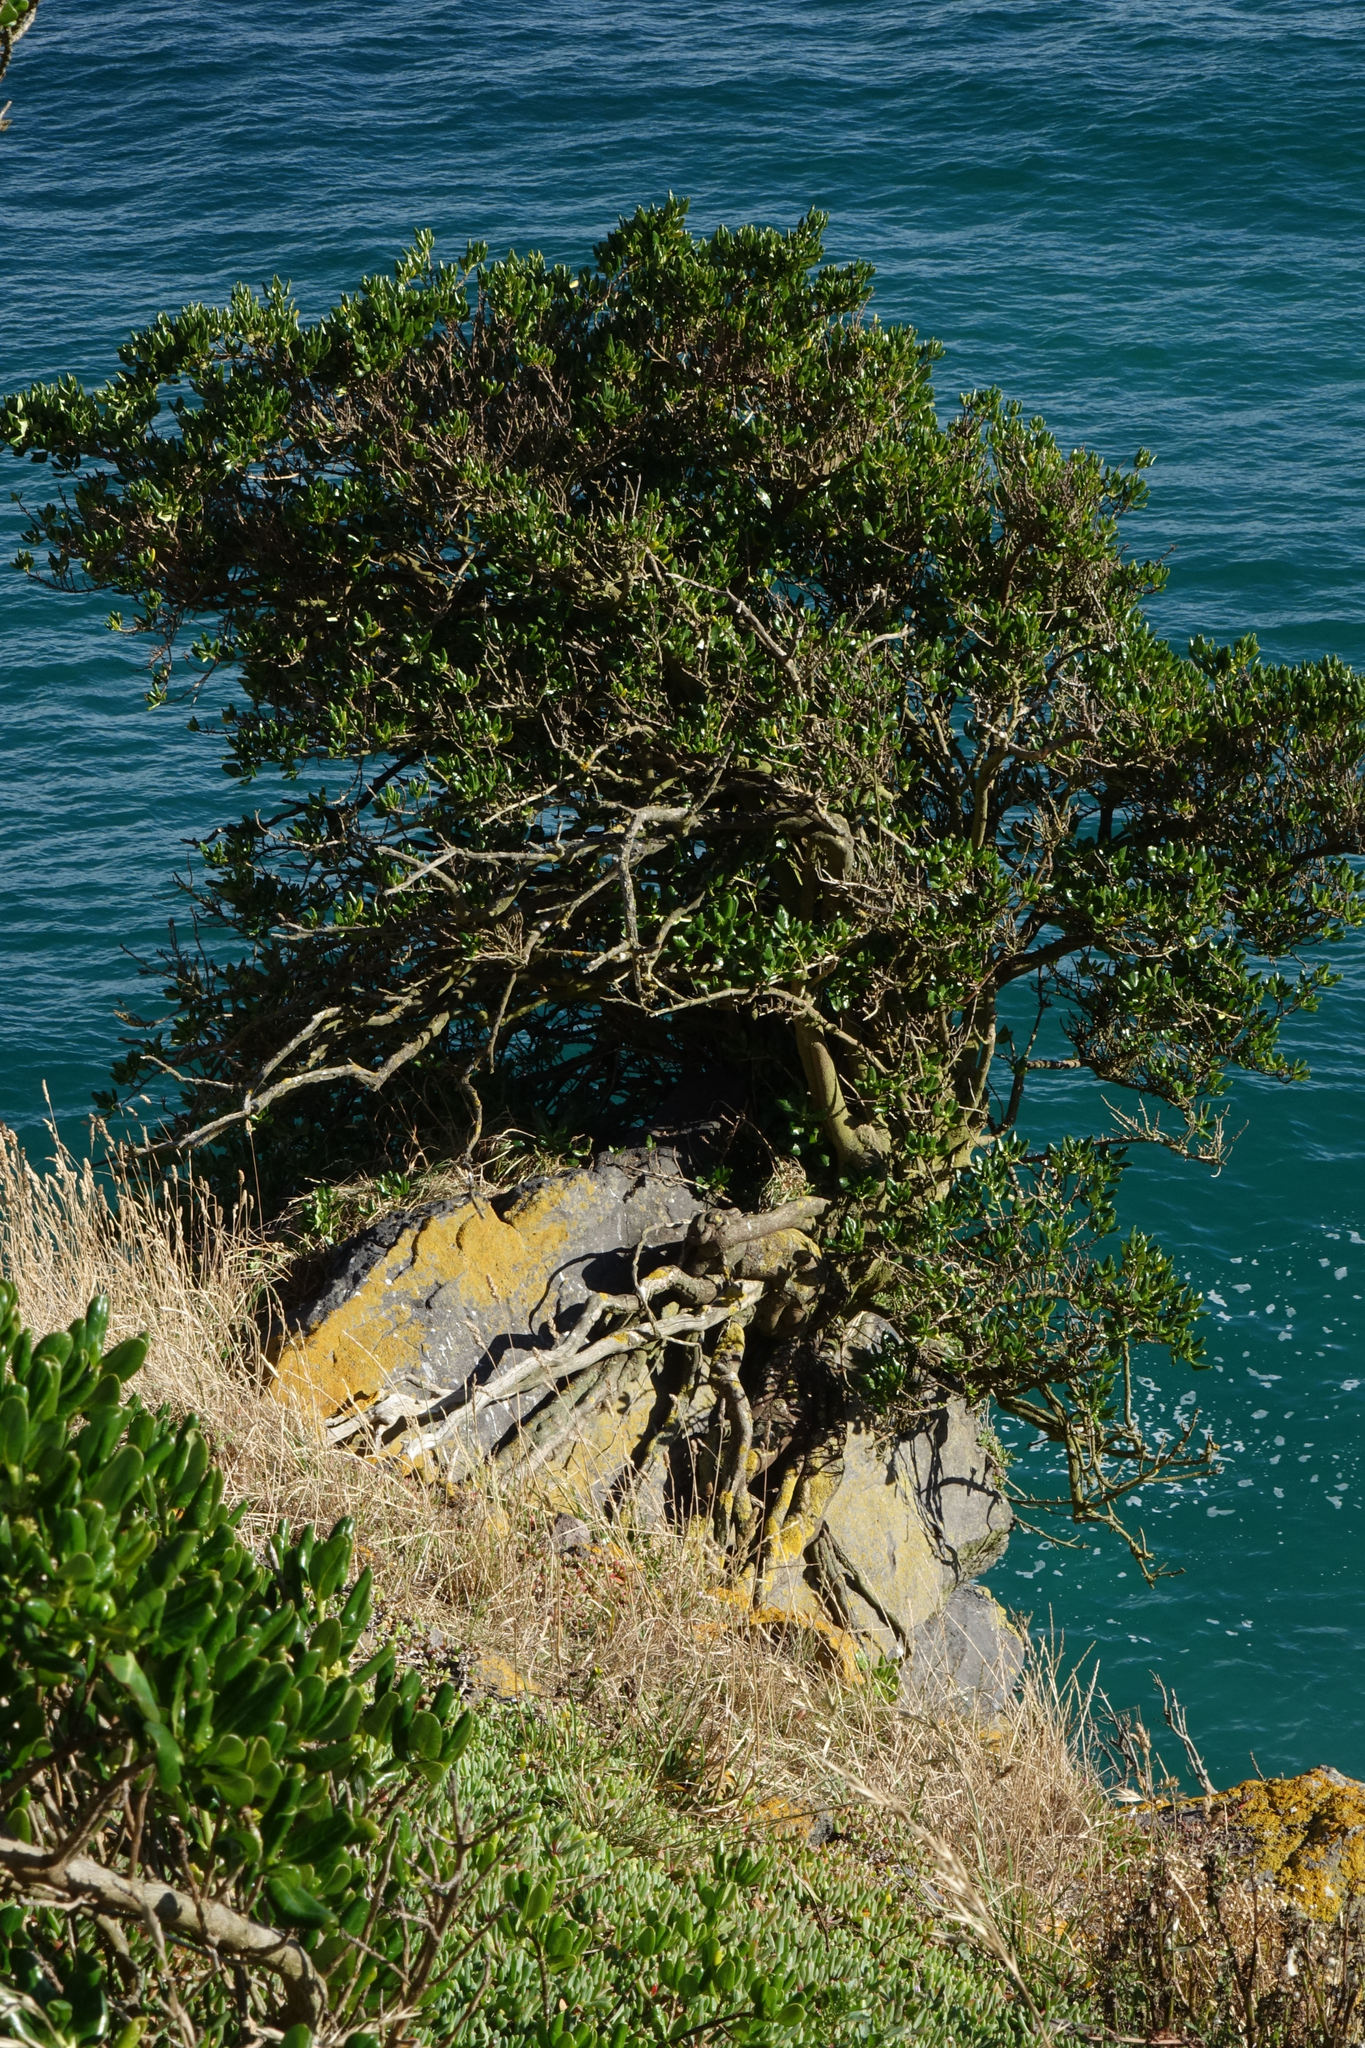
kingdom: Plantae
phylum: Tracheophyta
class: Magnoliopsida
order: Gentianales
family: Rubiaceae
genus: Coprosma
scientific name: Coprosma repens
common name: Tree bedstraw
